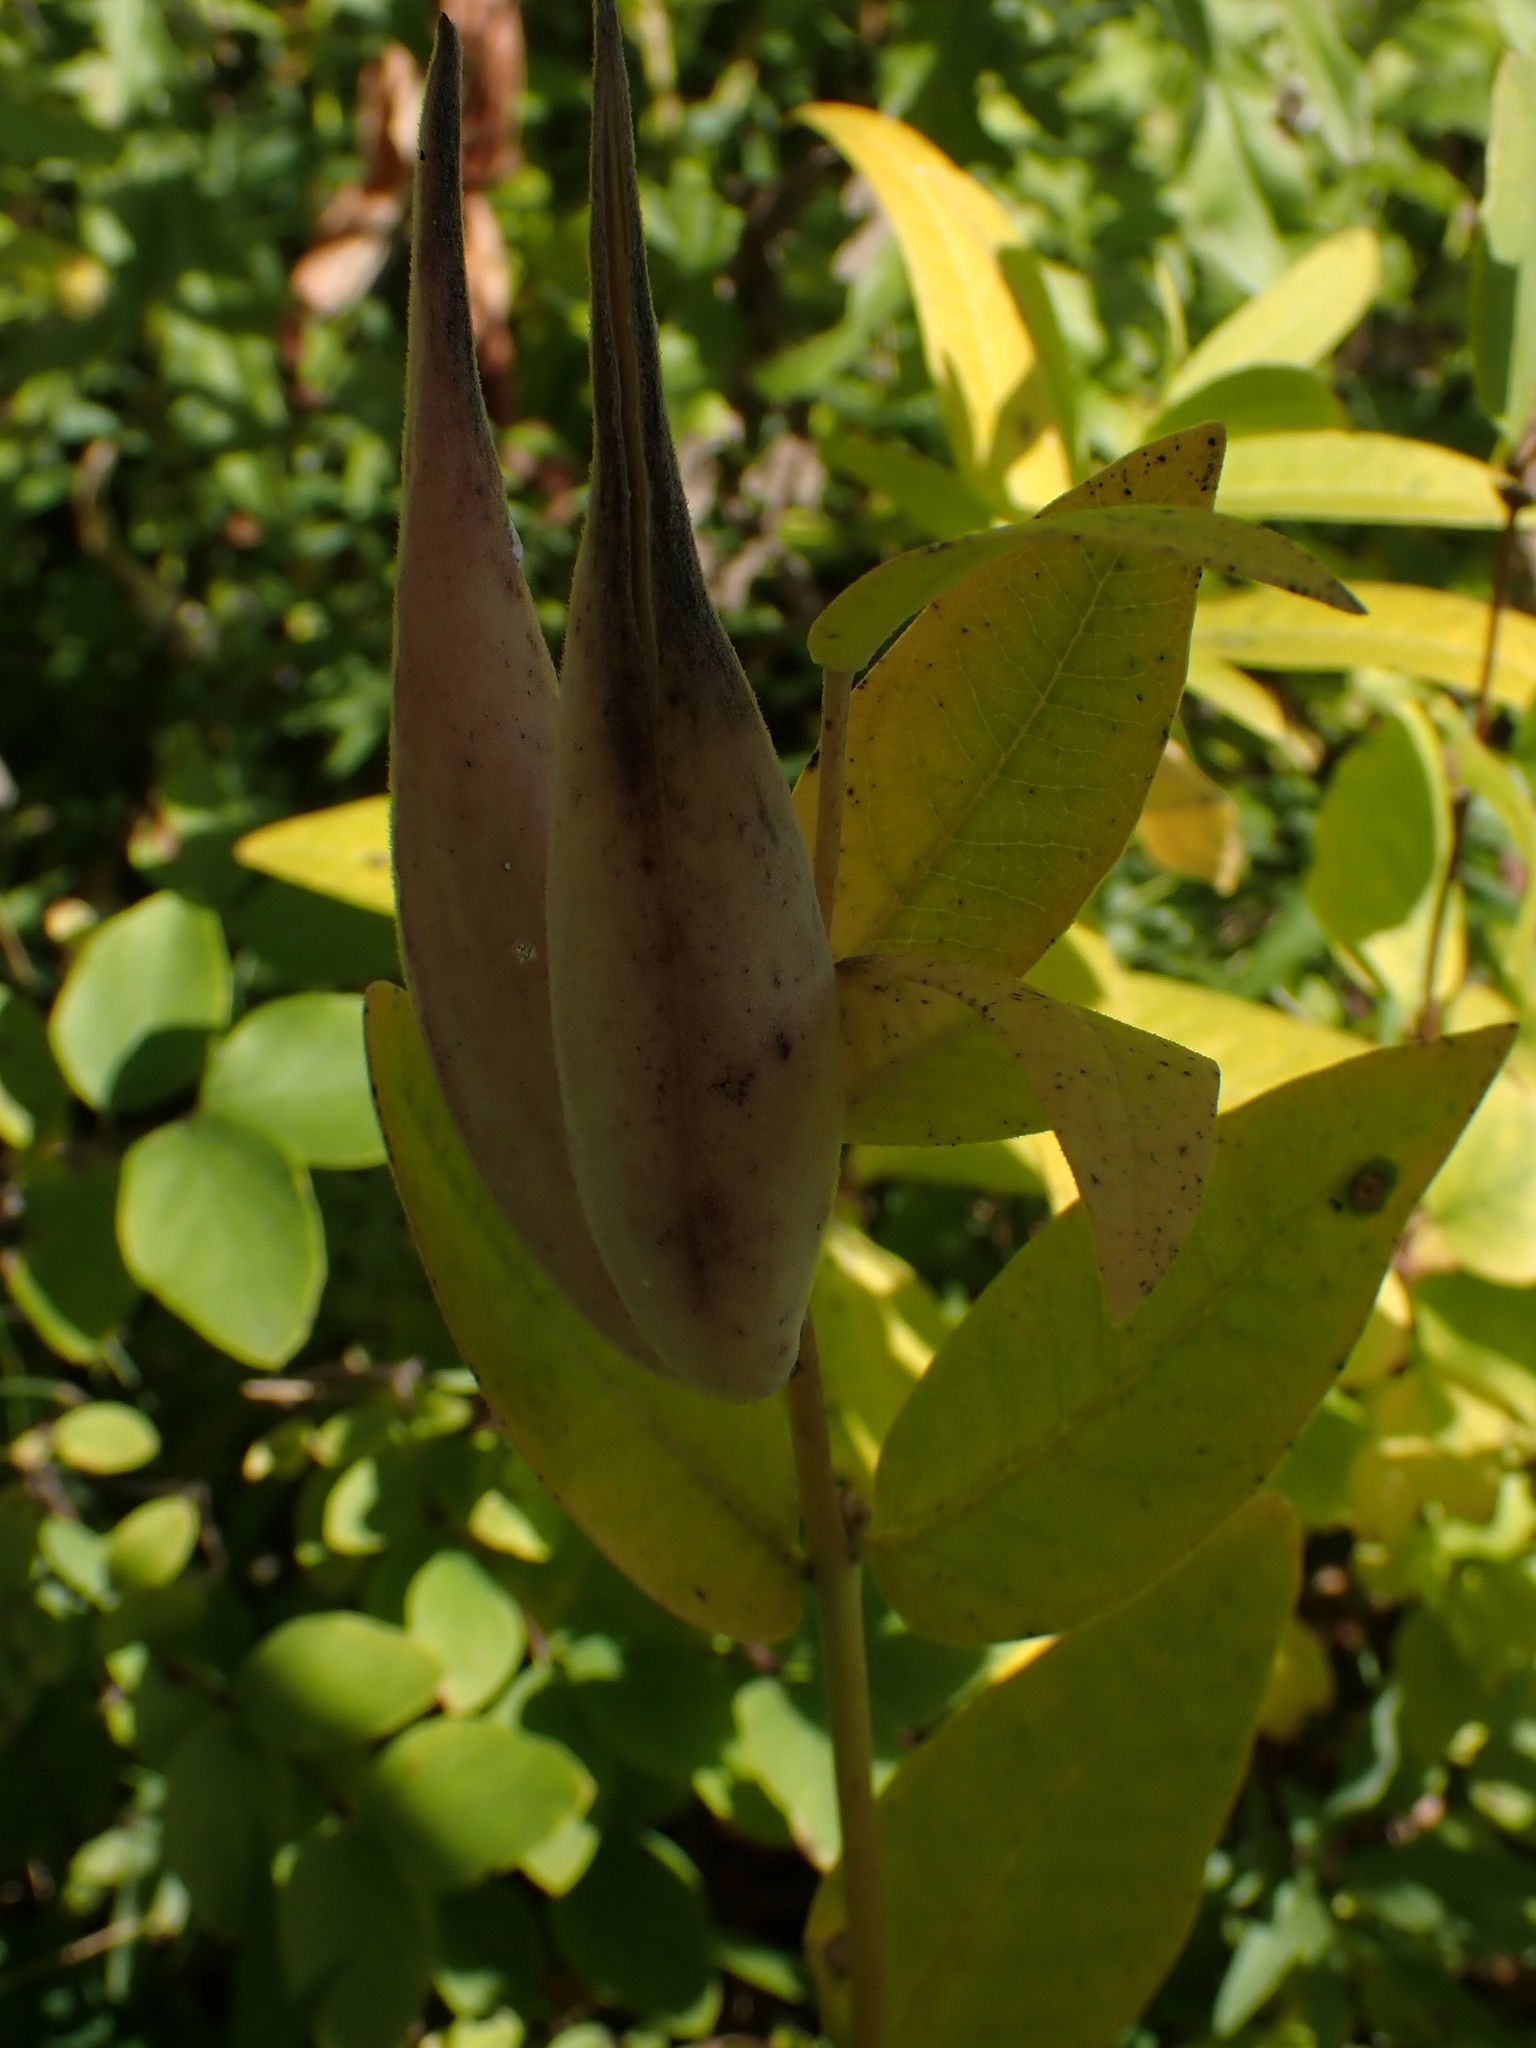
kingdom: Plantae
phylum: Tracheophyta
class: Magnoliopsida
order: Gentianales
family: Apocynaceae
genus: Asclepias
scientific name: Asclepias ovalifolia
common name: Dwarf milkweed
